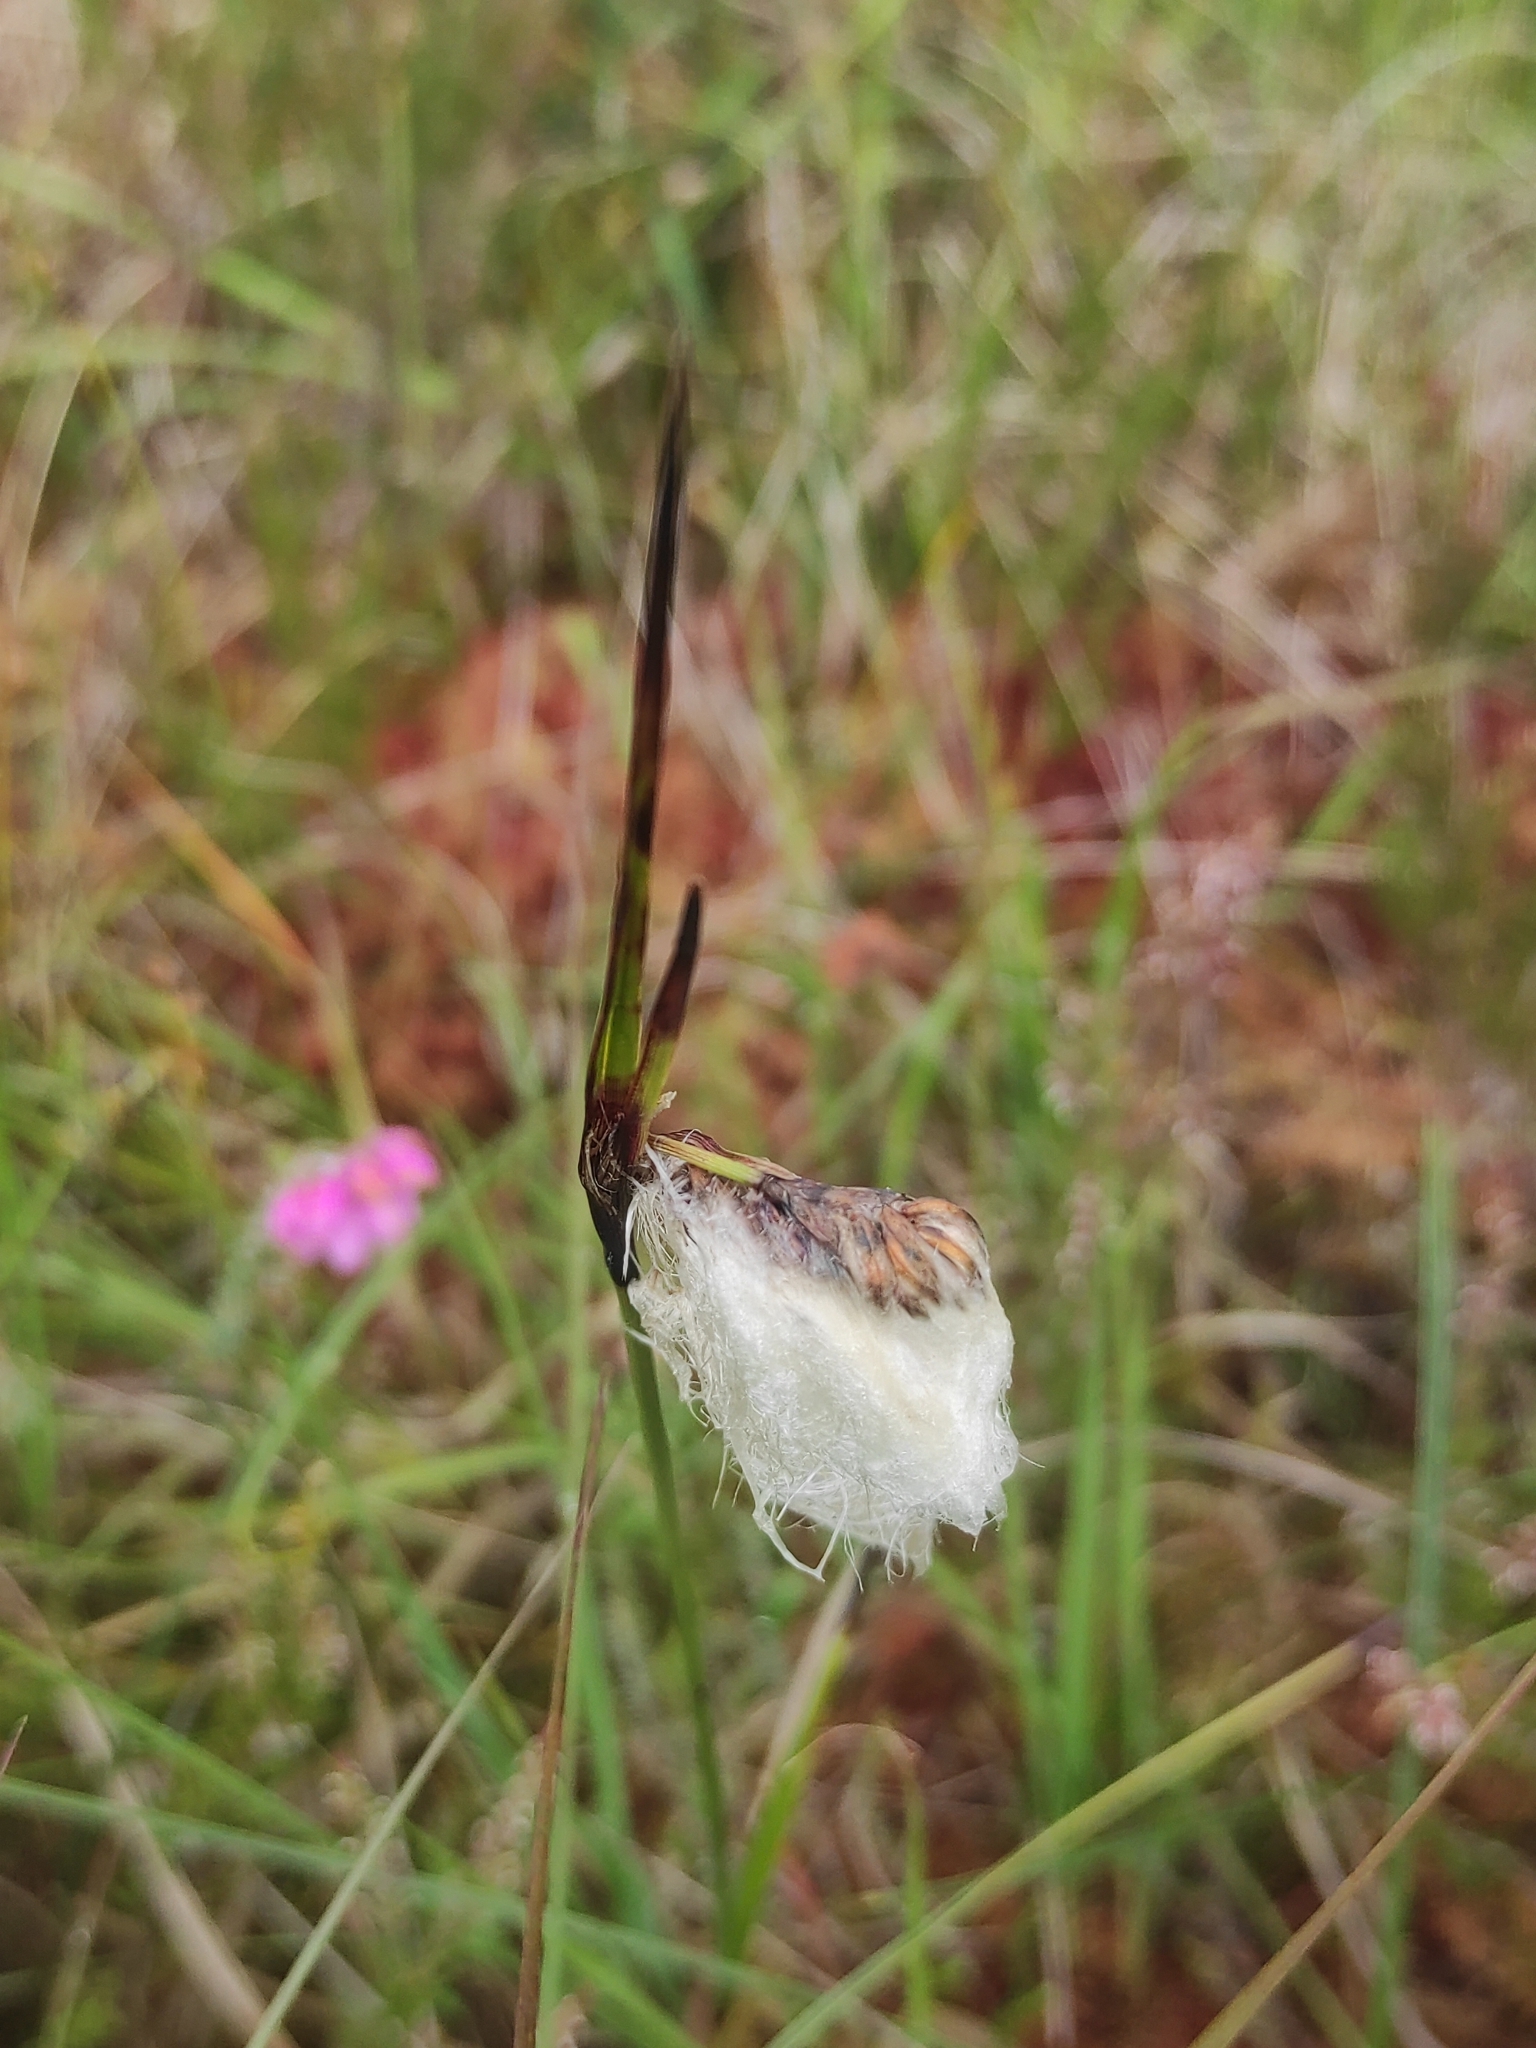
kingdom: Plantae
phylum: Tracheophyta
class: Liliopsida
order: Poales
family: Cyperaceae
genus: Eriophorum
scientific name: Eriophorum angustifolium
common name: Common cottongrass
